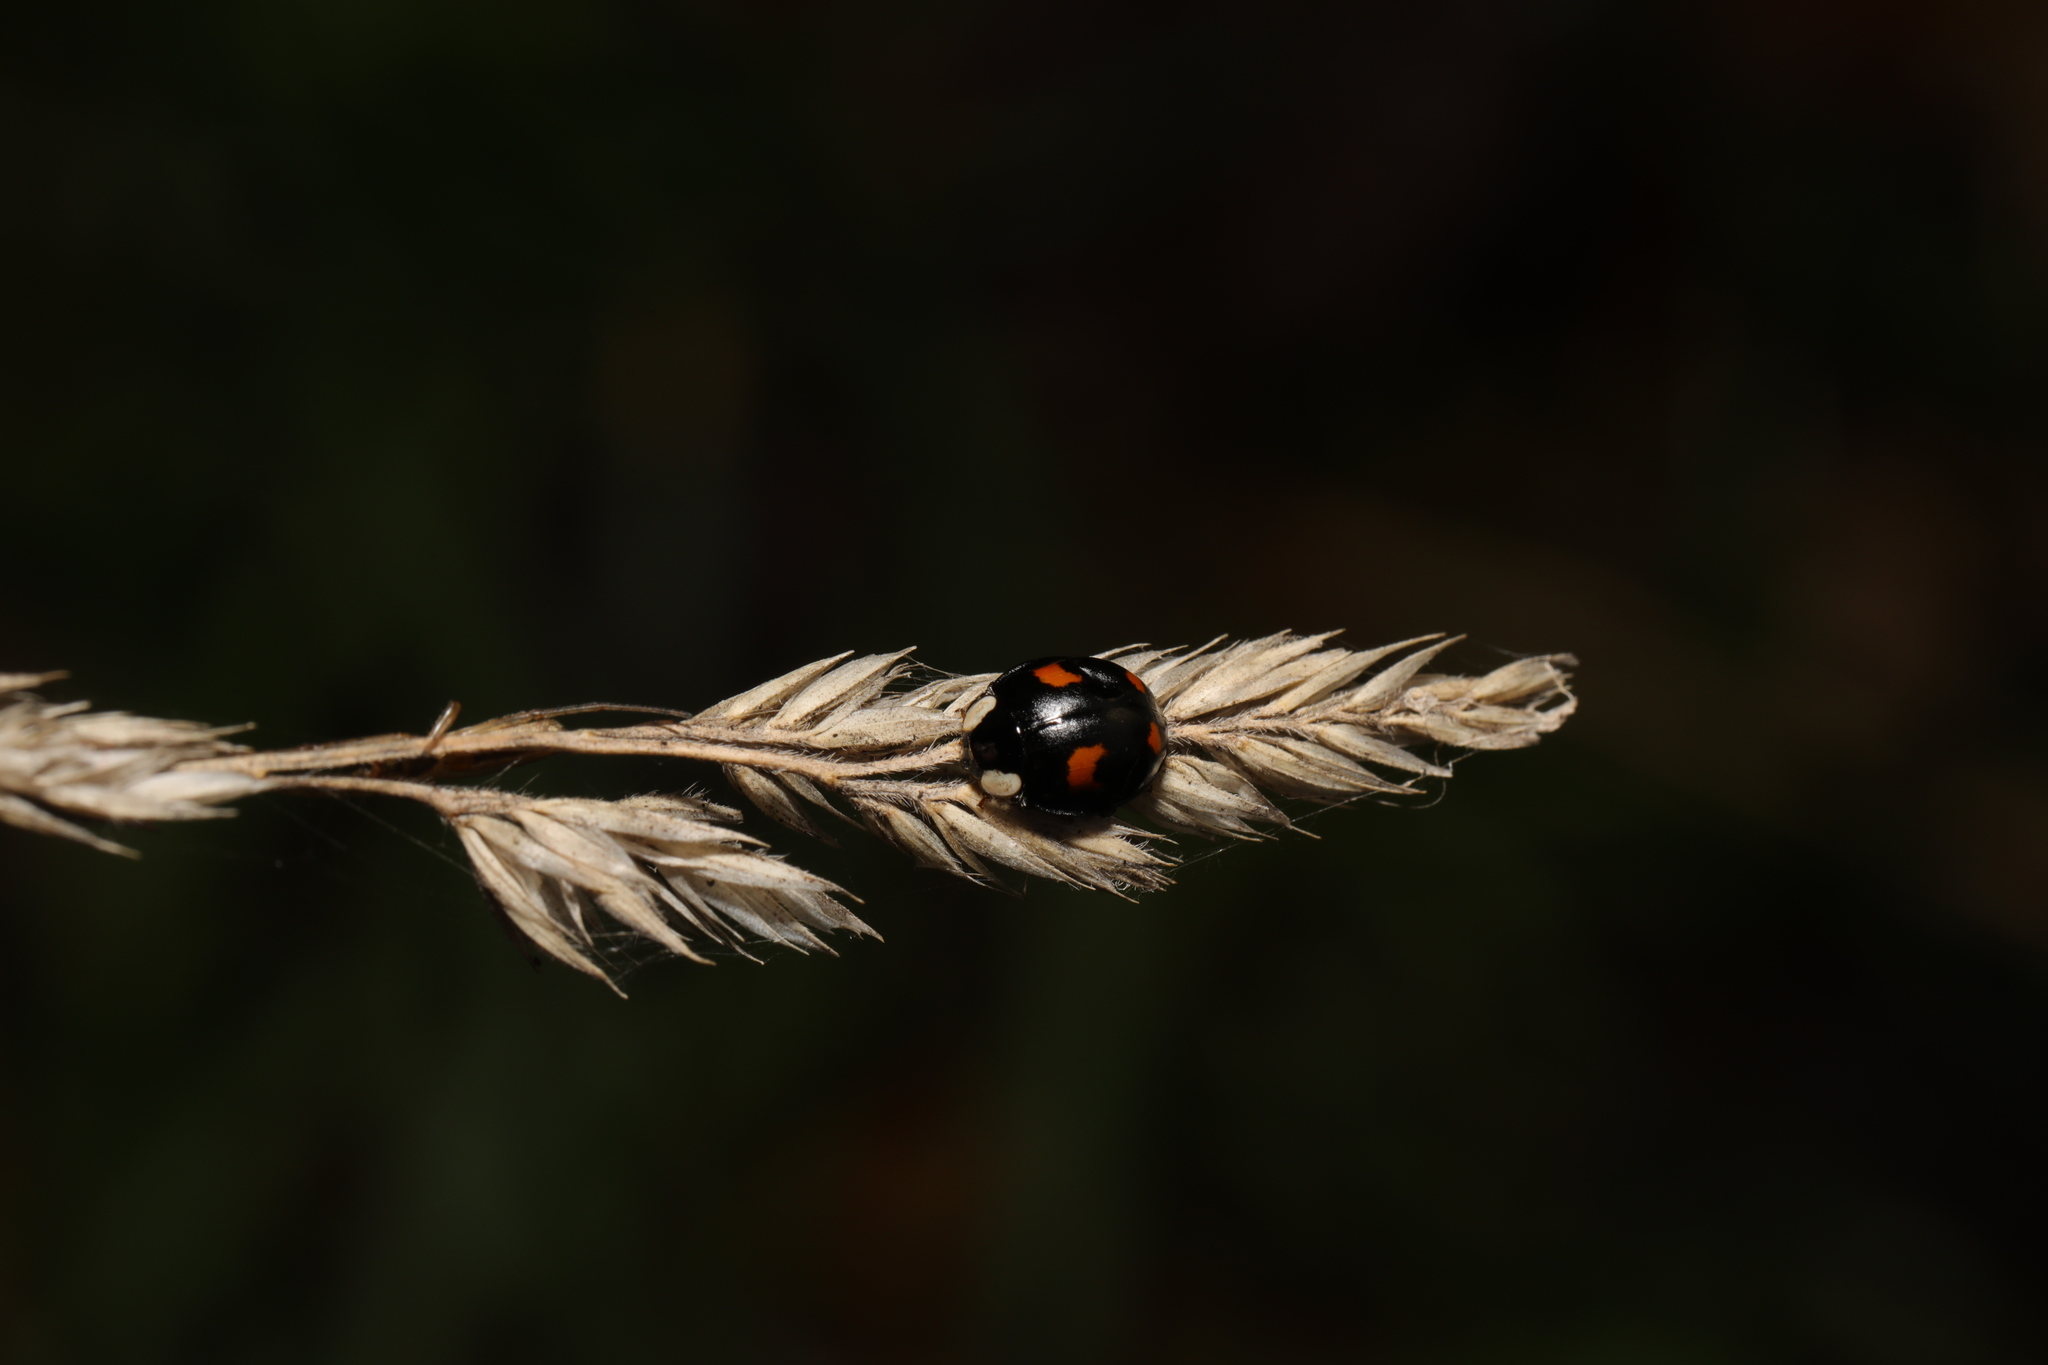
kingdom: Animalia
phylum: Arthropoda
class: Insecta
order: Coleoptera
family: Coccinellidae
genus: Harmonia
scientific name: Harmonia axyridis
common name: Harlequin ladybird
